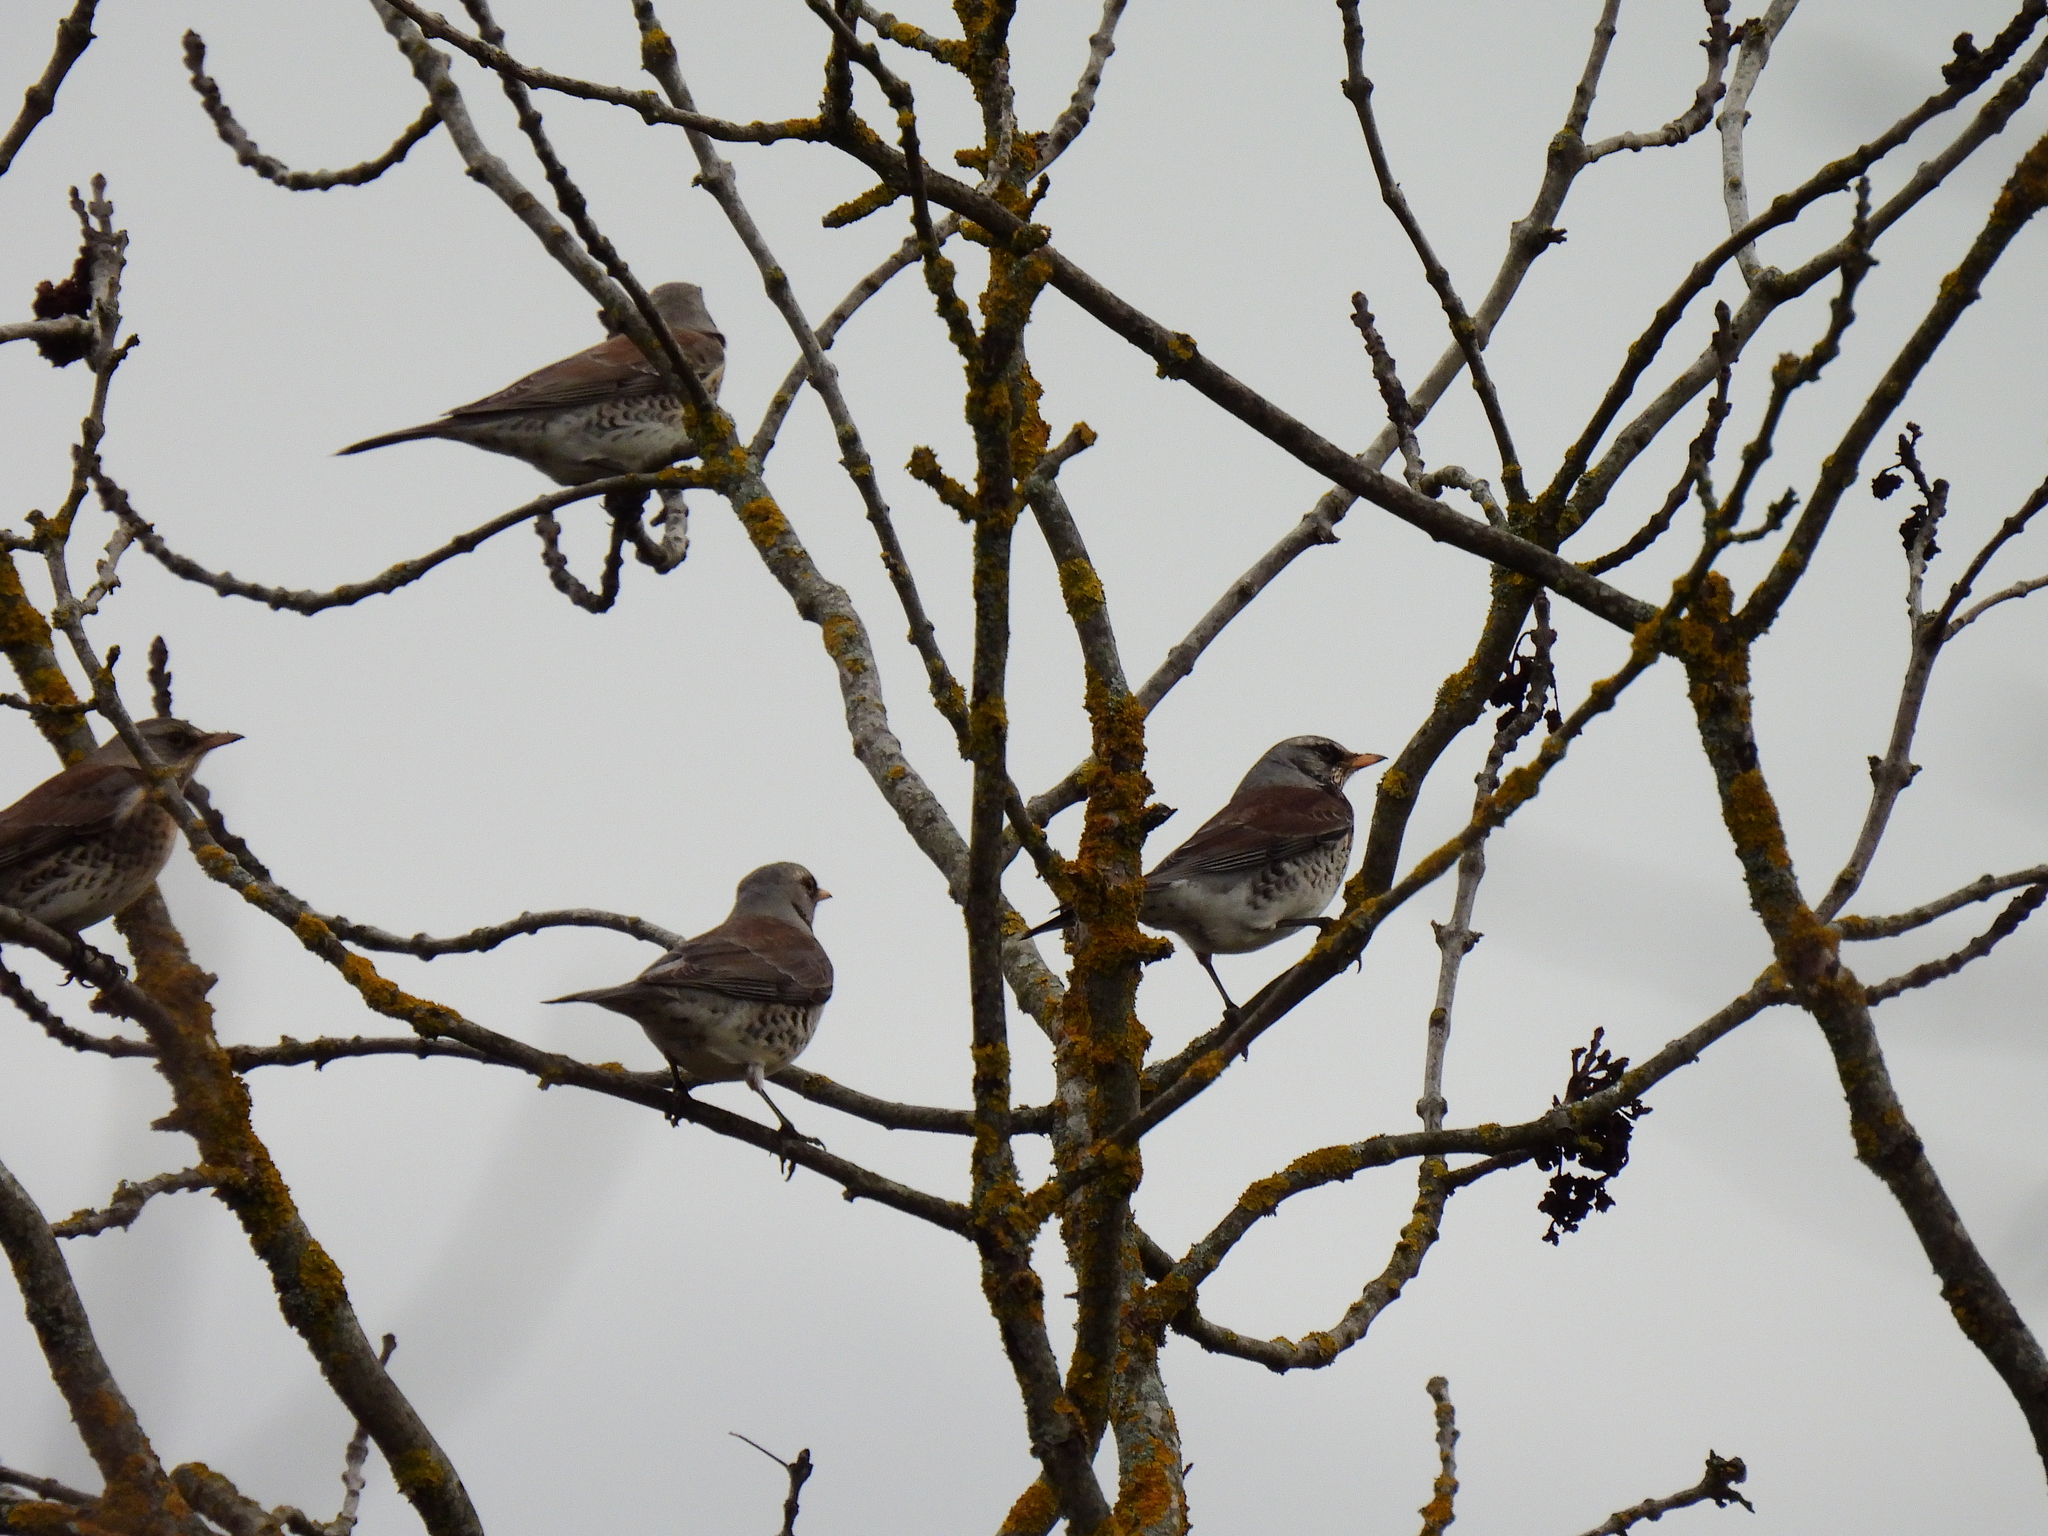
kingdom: Animalia
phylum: Chordata
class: Aves
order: Passeriformes
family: Turdidae
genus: Turdus
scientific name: Turdus pilaris
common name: Fieldfare
